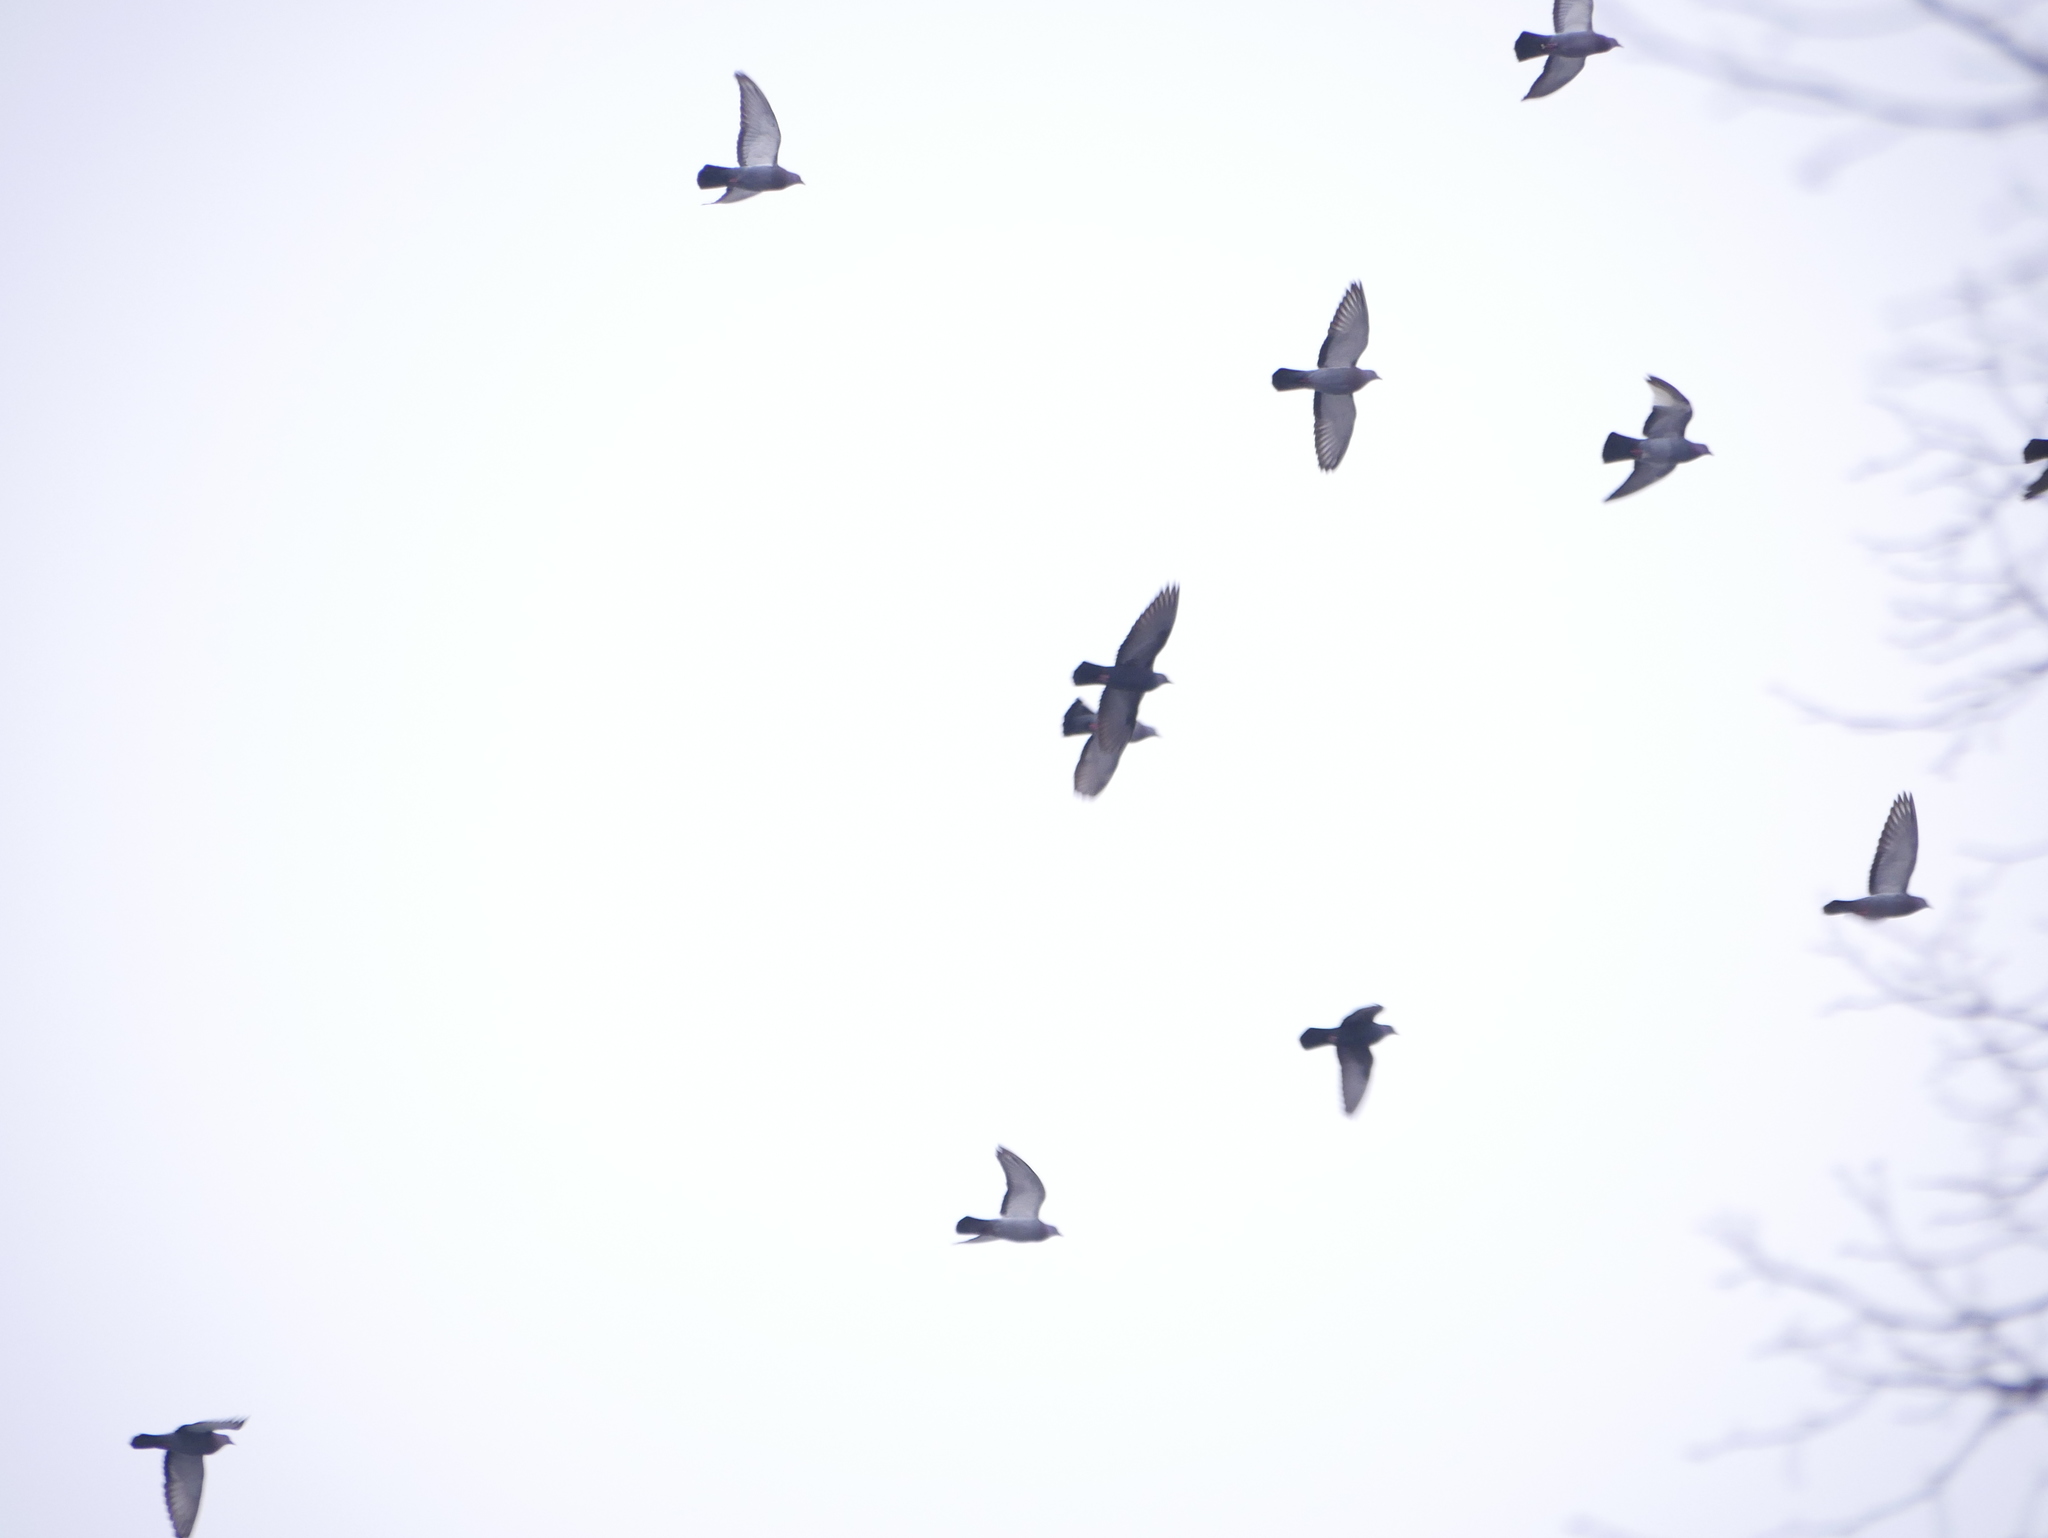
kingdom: Animalia
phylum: Chordata
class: Aves
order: Columbiformes
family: Columbidae
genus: Columba
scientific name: Columba livia
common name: Rock pigeon
